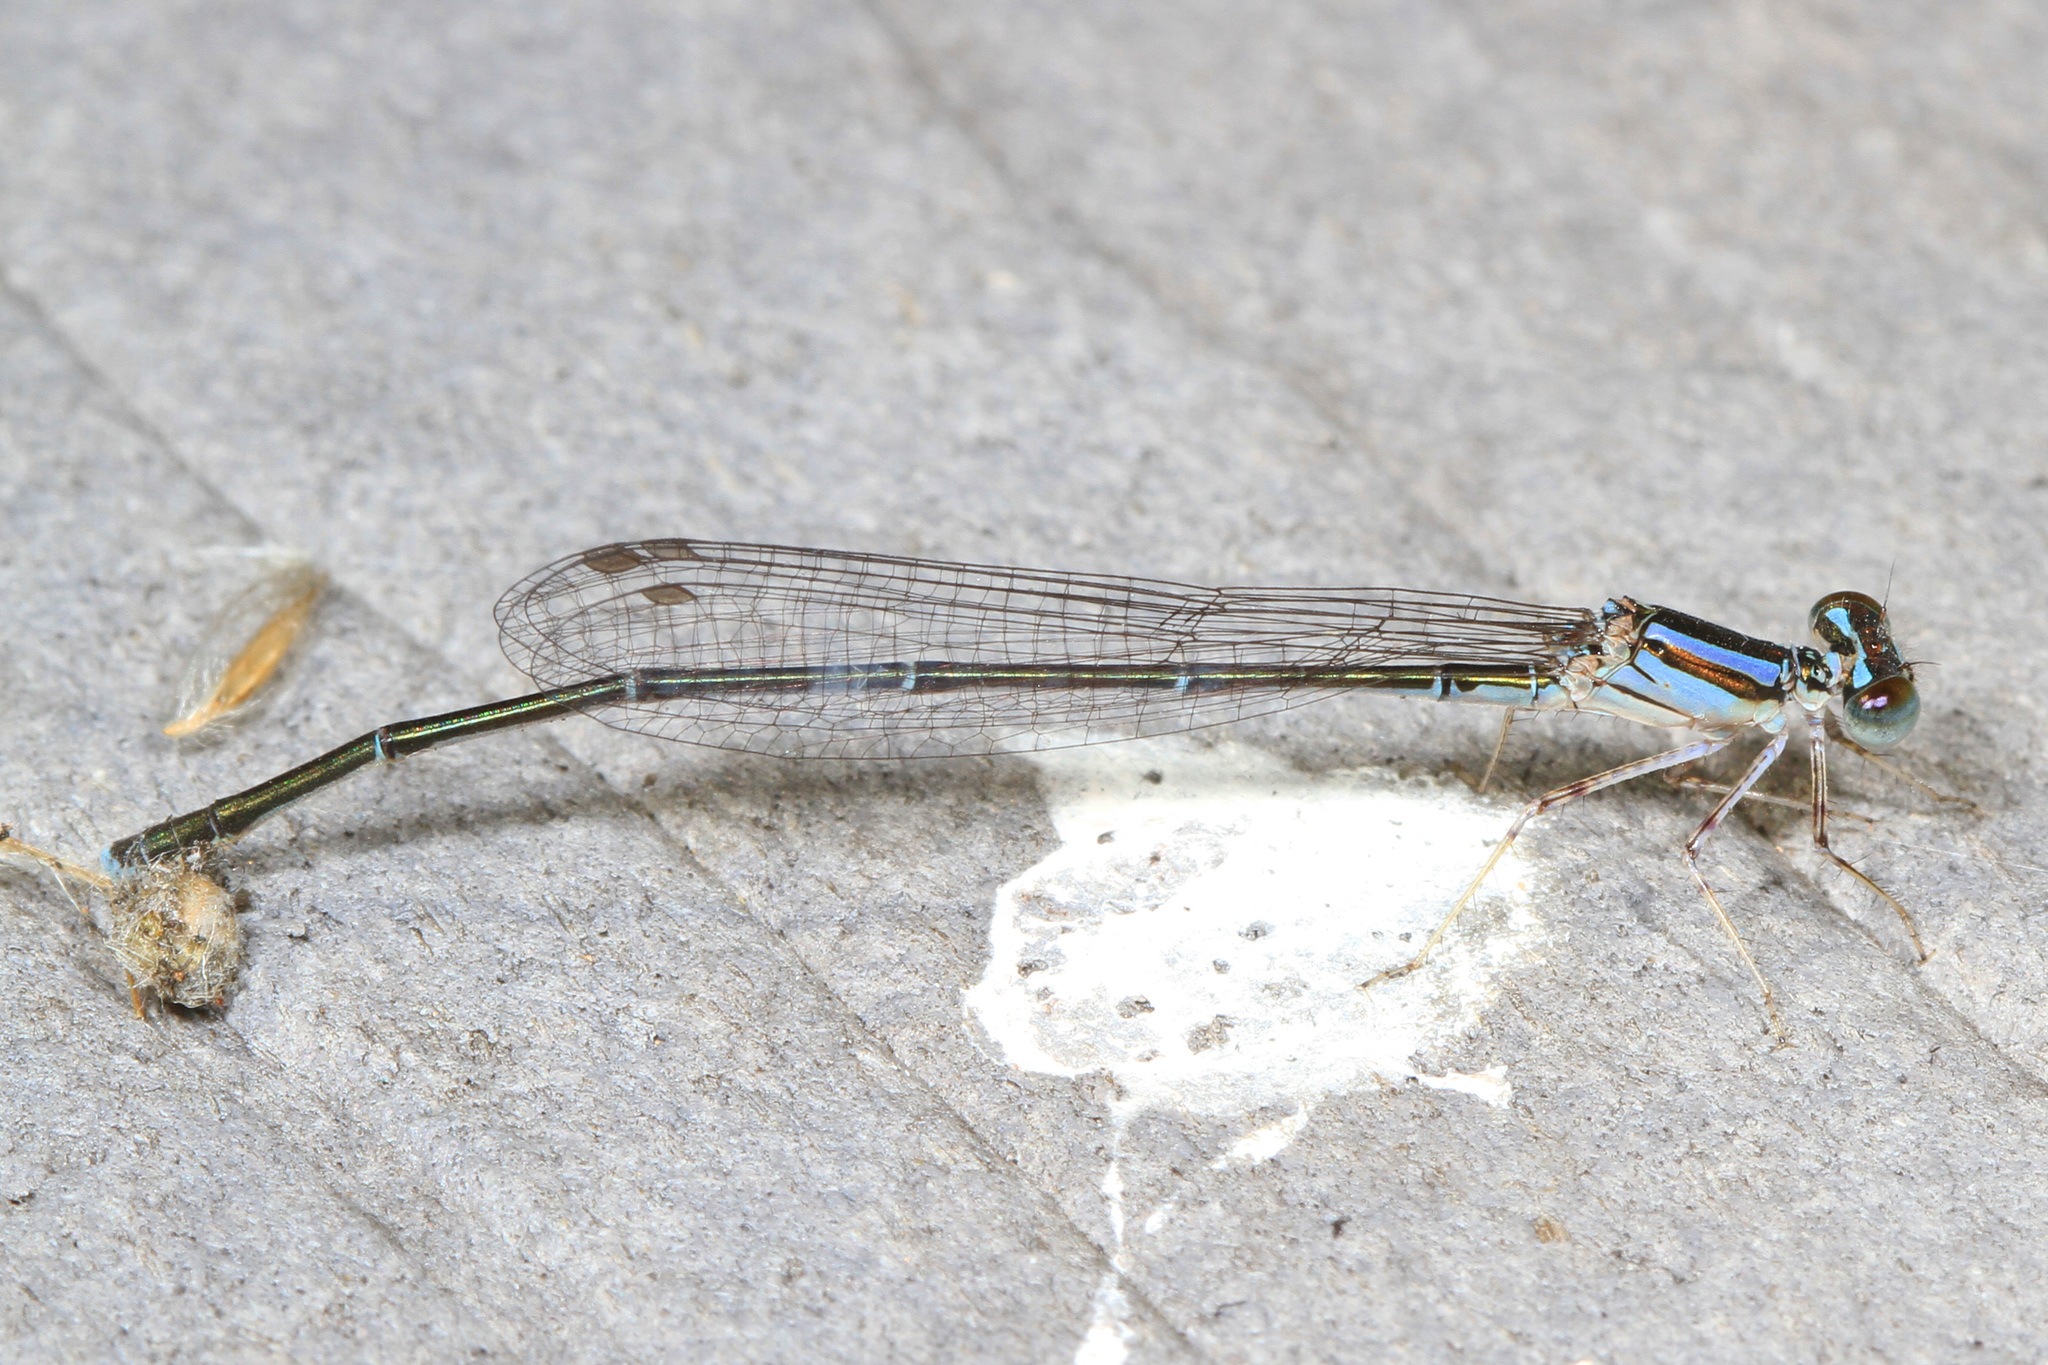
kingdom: Animalia
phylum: Arthropoda
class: Insecta
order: Odonata
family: Coenagrionidae
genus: Enallagma
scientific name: Enallagma pollutum
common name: Florida bluet
